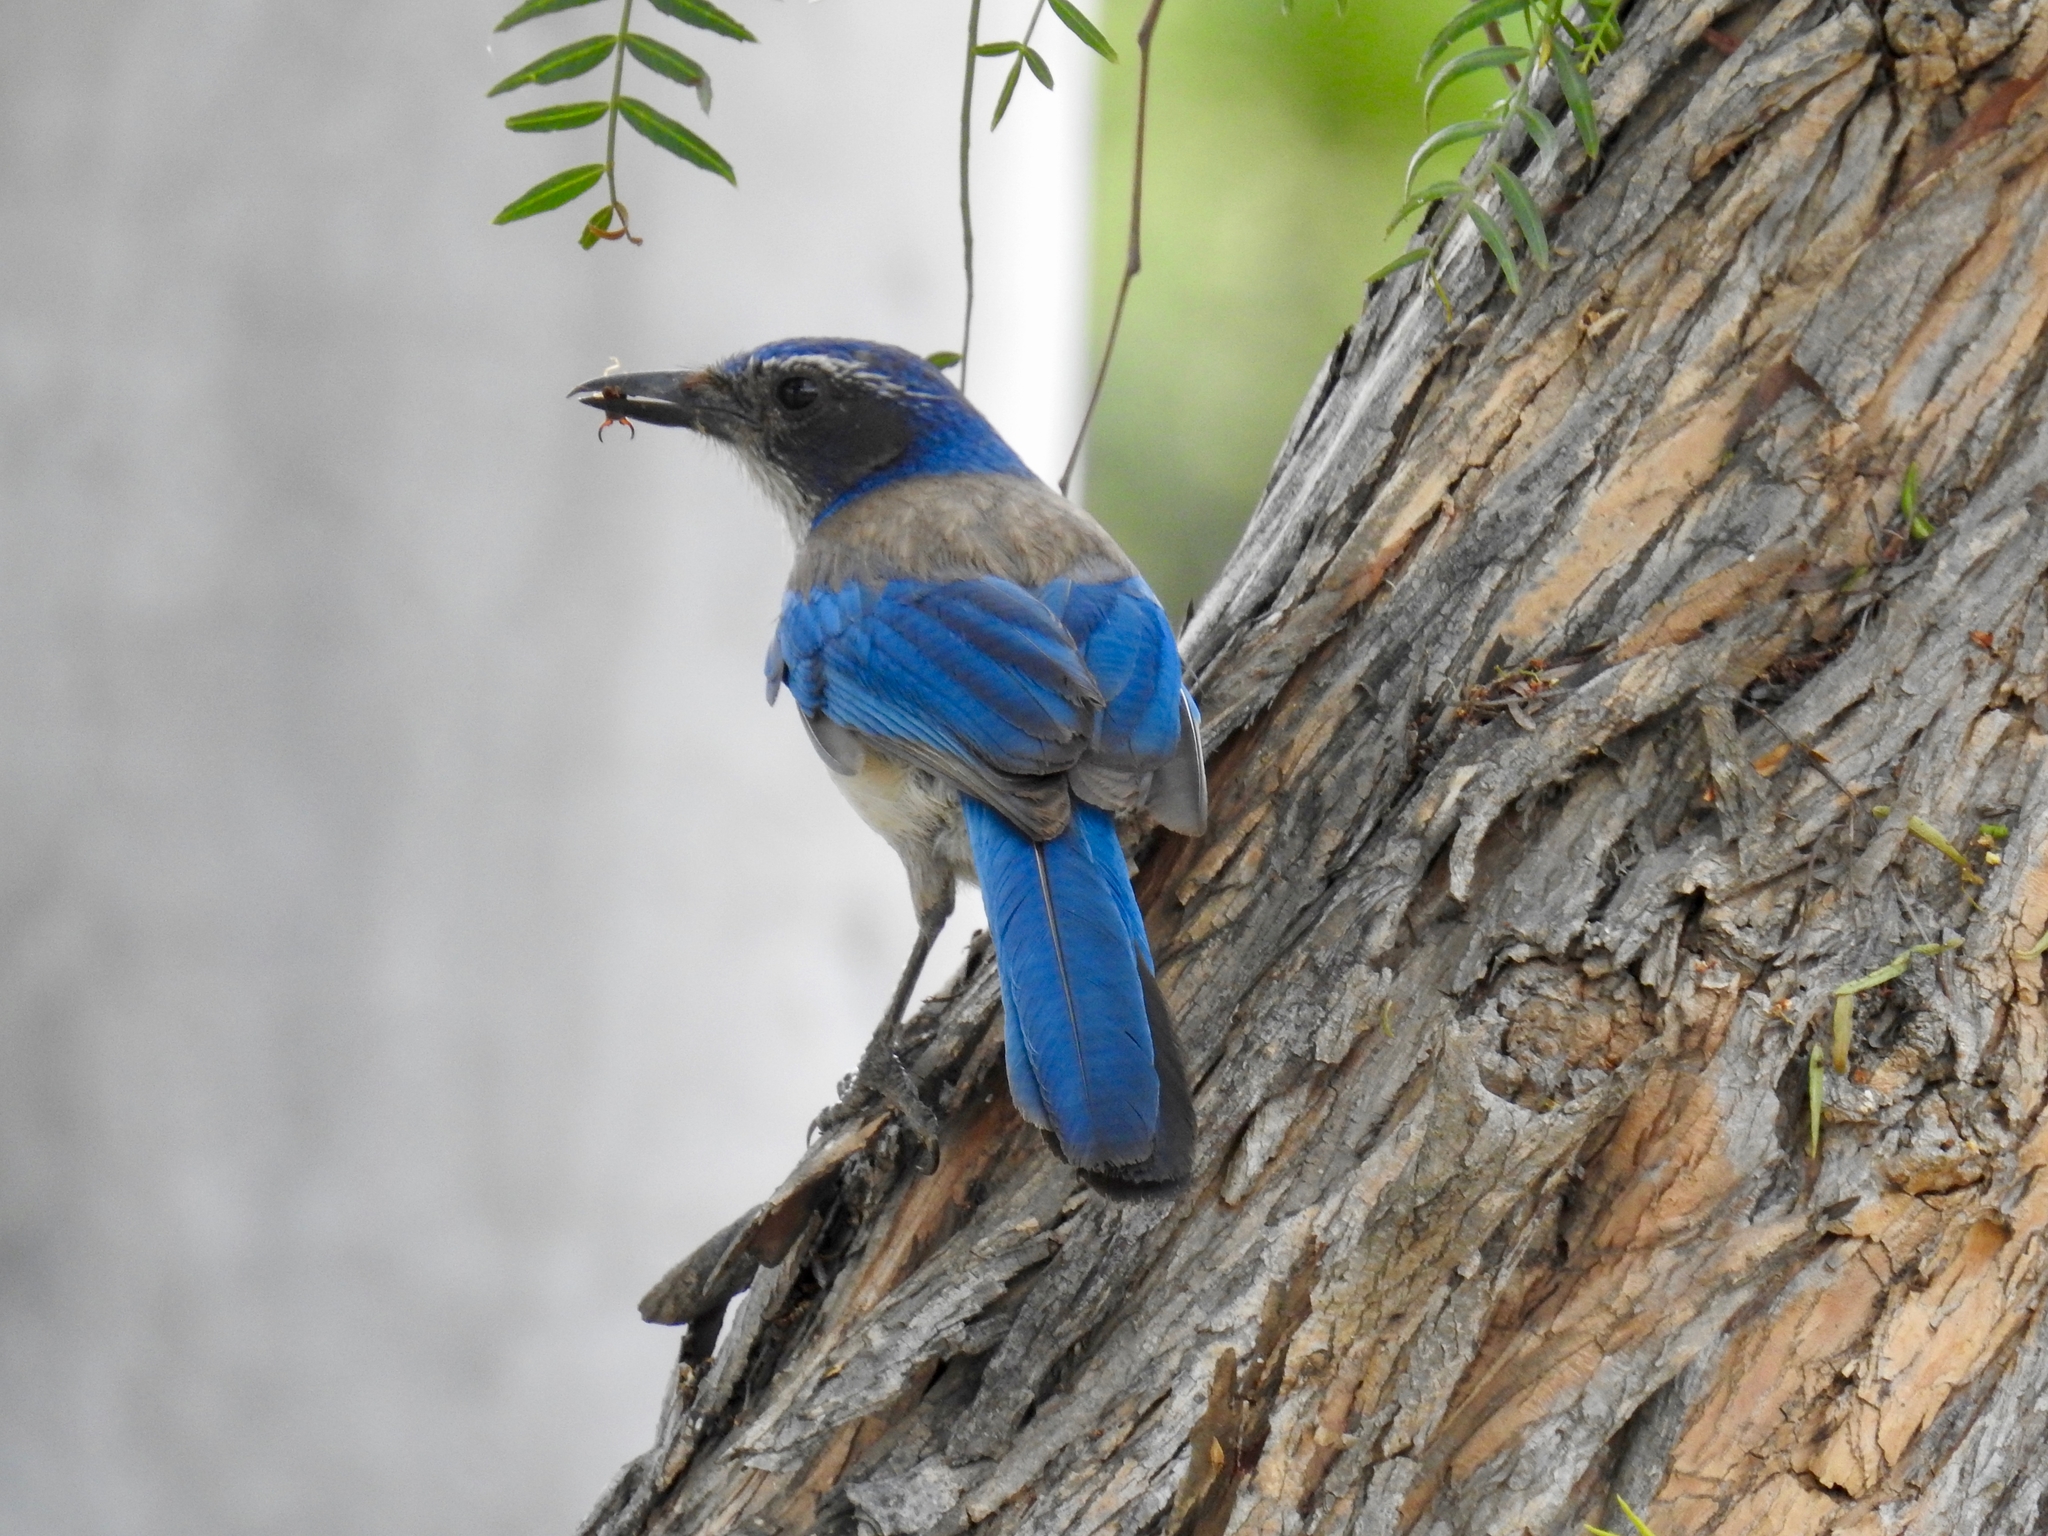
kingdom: Animalia
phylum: Chordata
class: Aves
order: Passeriformes
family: Corvidae
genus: Aphelocoma
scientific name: Aphelocoma californica
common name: California scrub-jay
